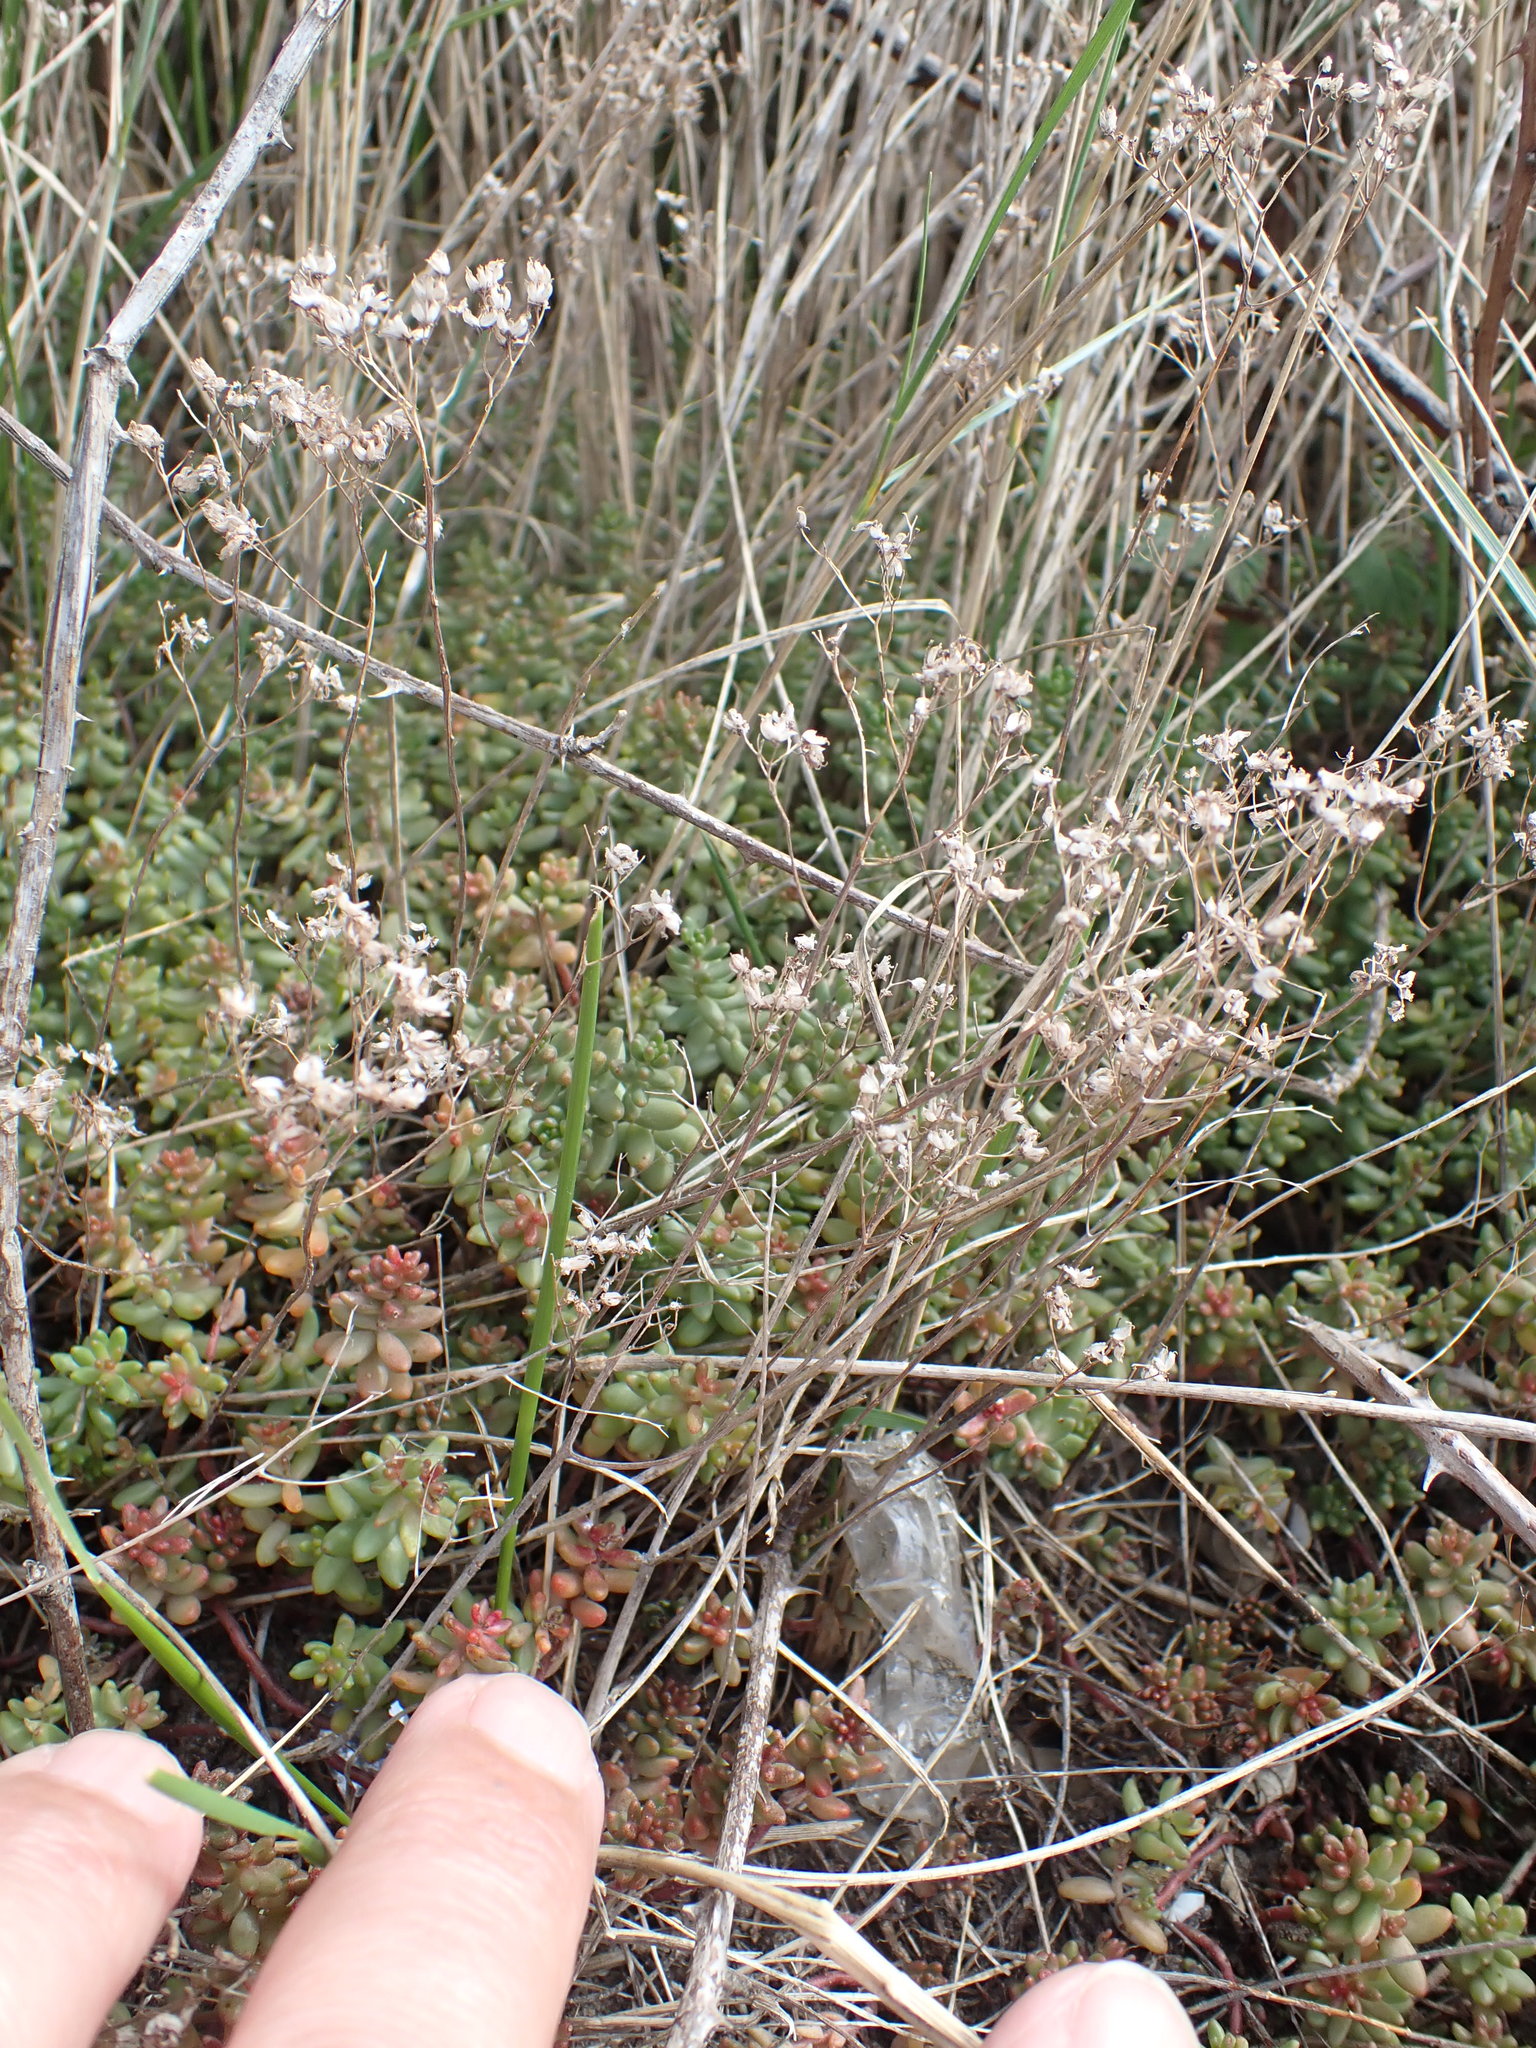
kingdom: Plantae
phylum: Tracheophyta
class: Magnoliopsida
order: Saxifragales
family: Crassulaceae
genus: Sedum
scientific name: Sedum album
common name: White stonecrop
